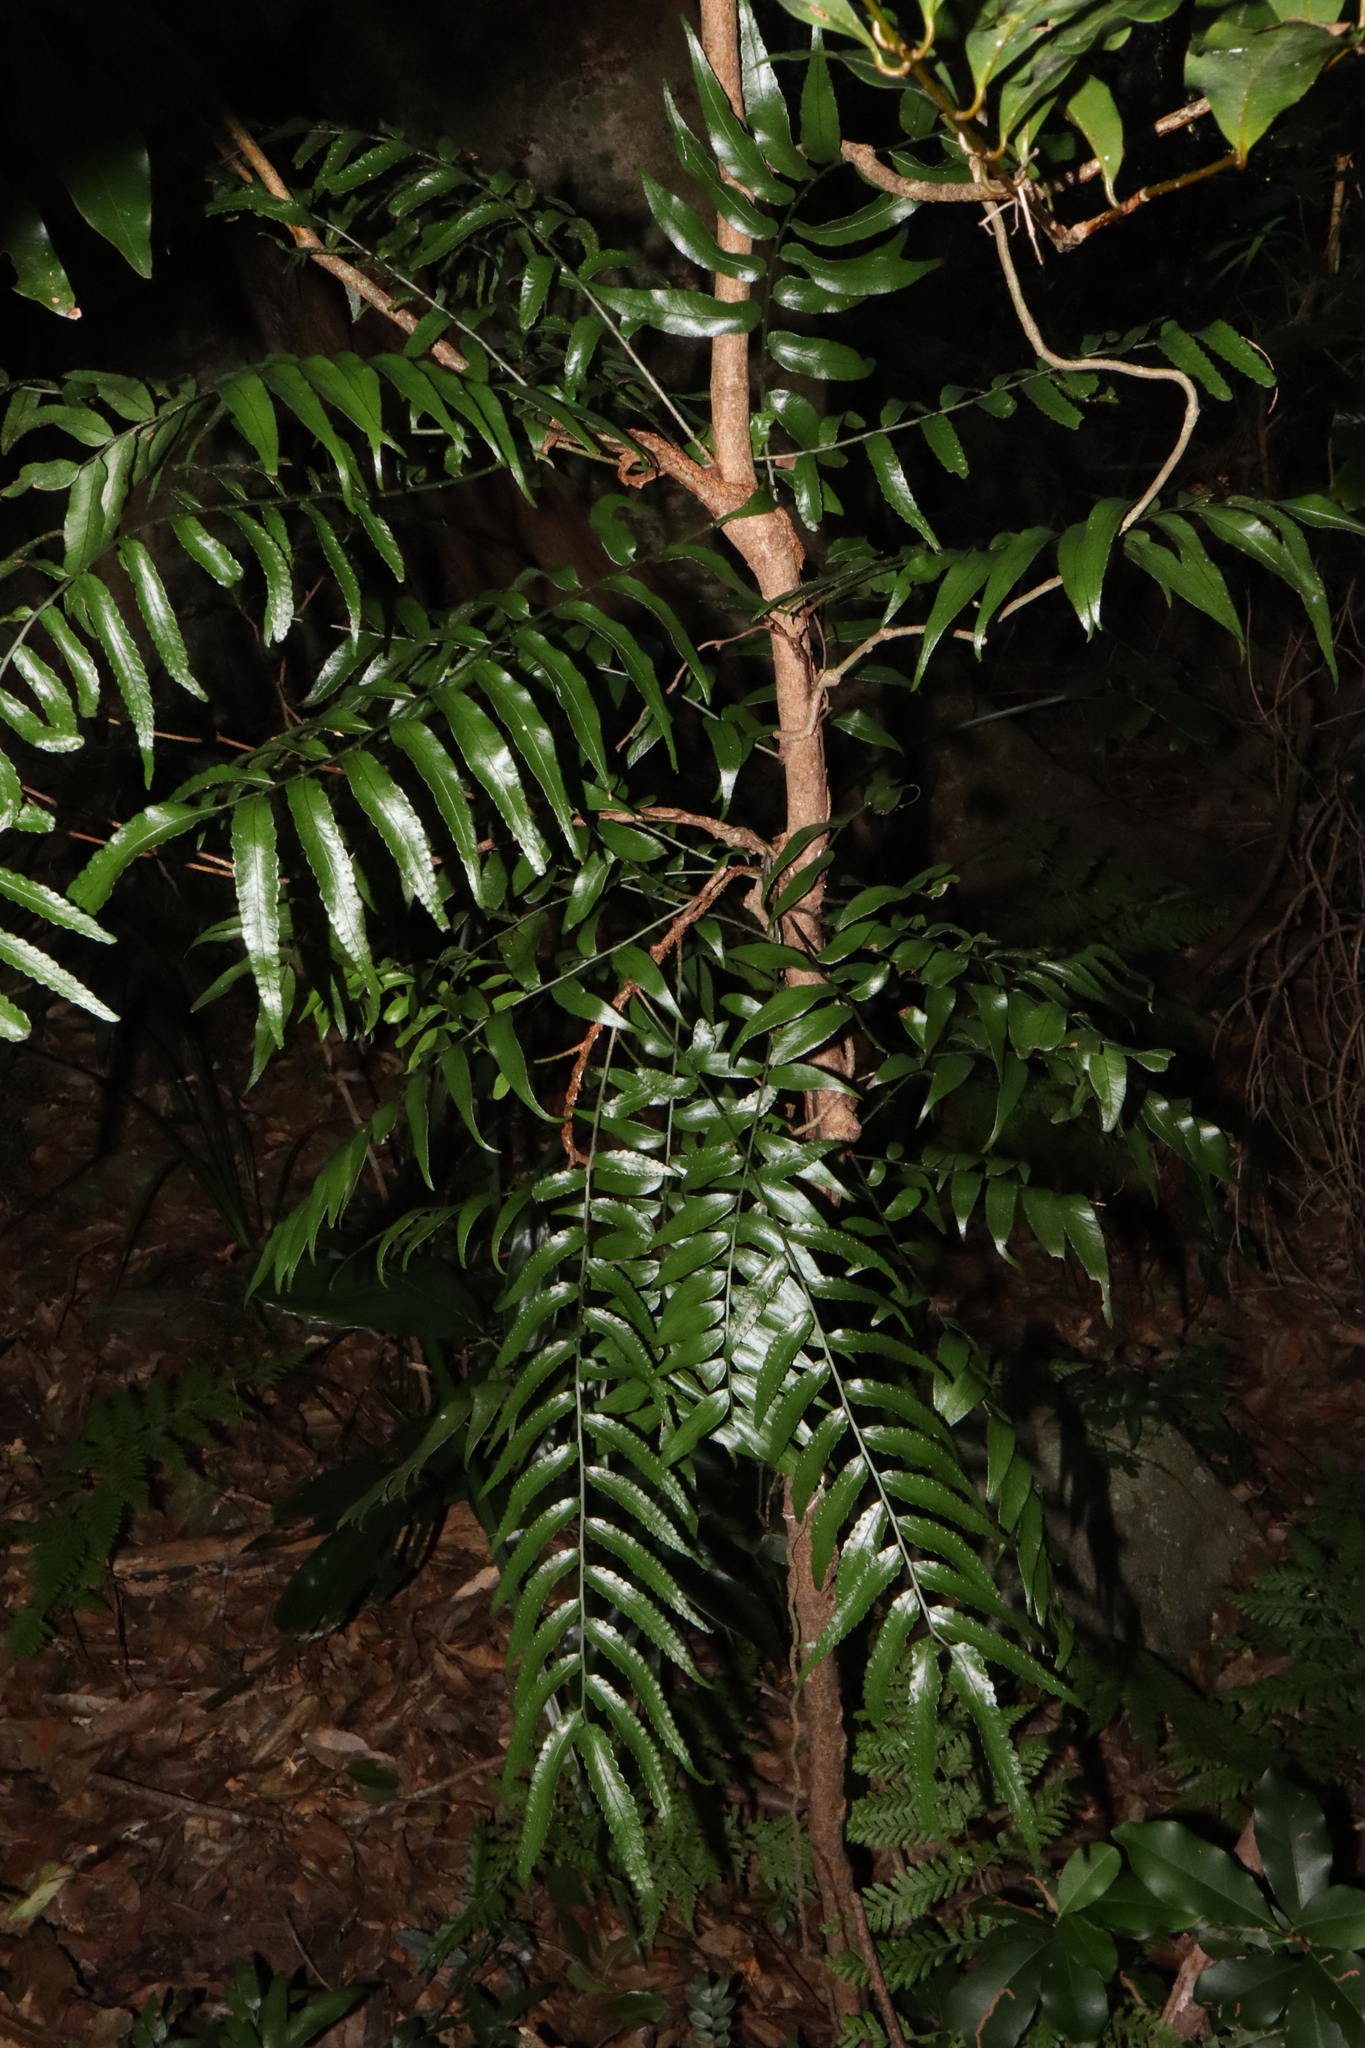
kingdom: Plantae
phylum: Tracheophyta
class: Polypodiopsida
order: Polypodiales
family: Tectariaceae
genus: Arthropteris
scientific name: Arthropteris tenella
